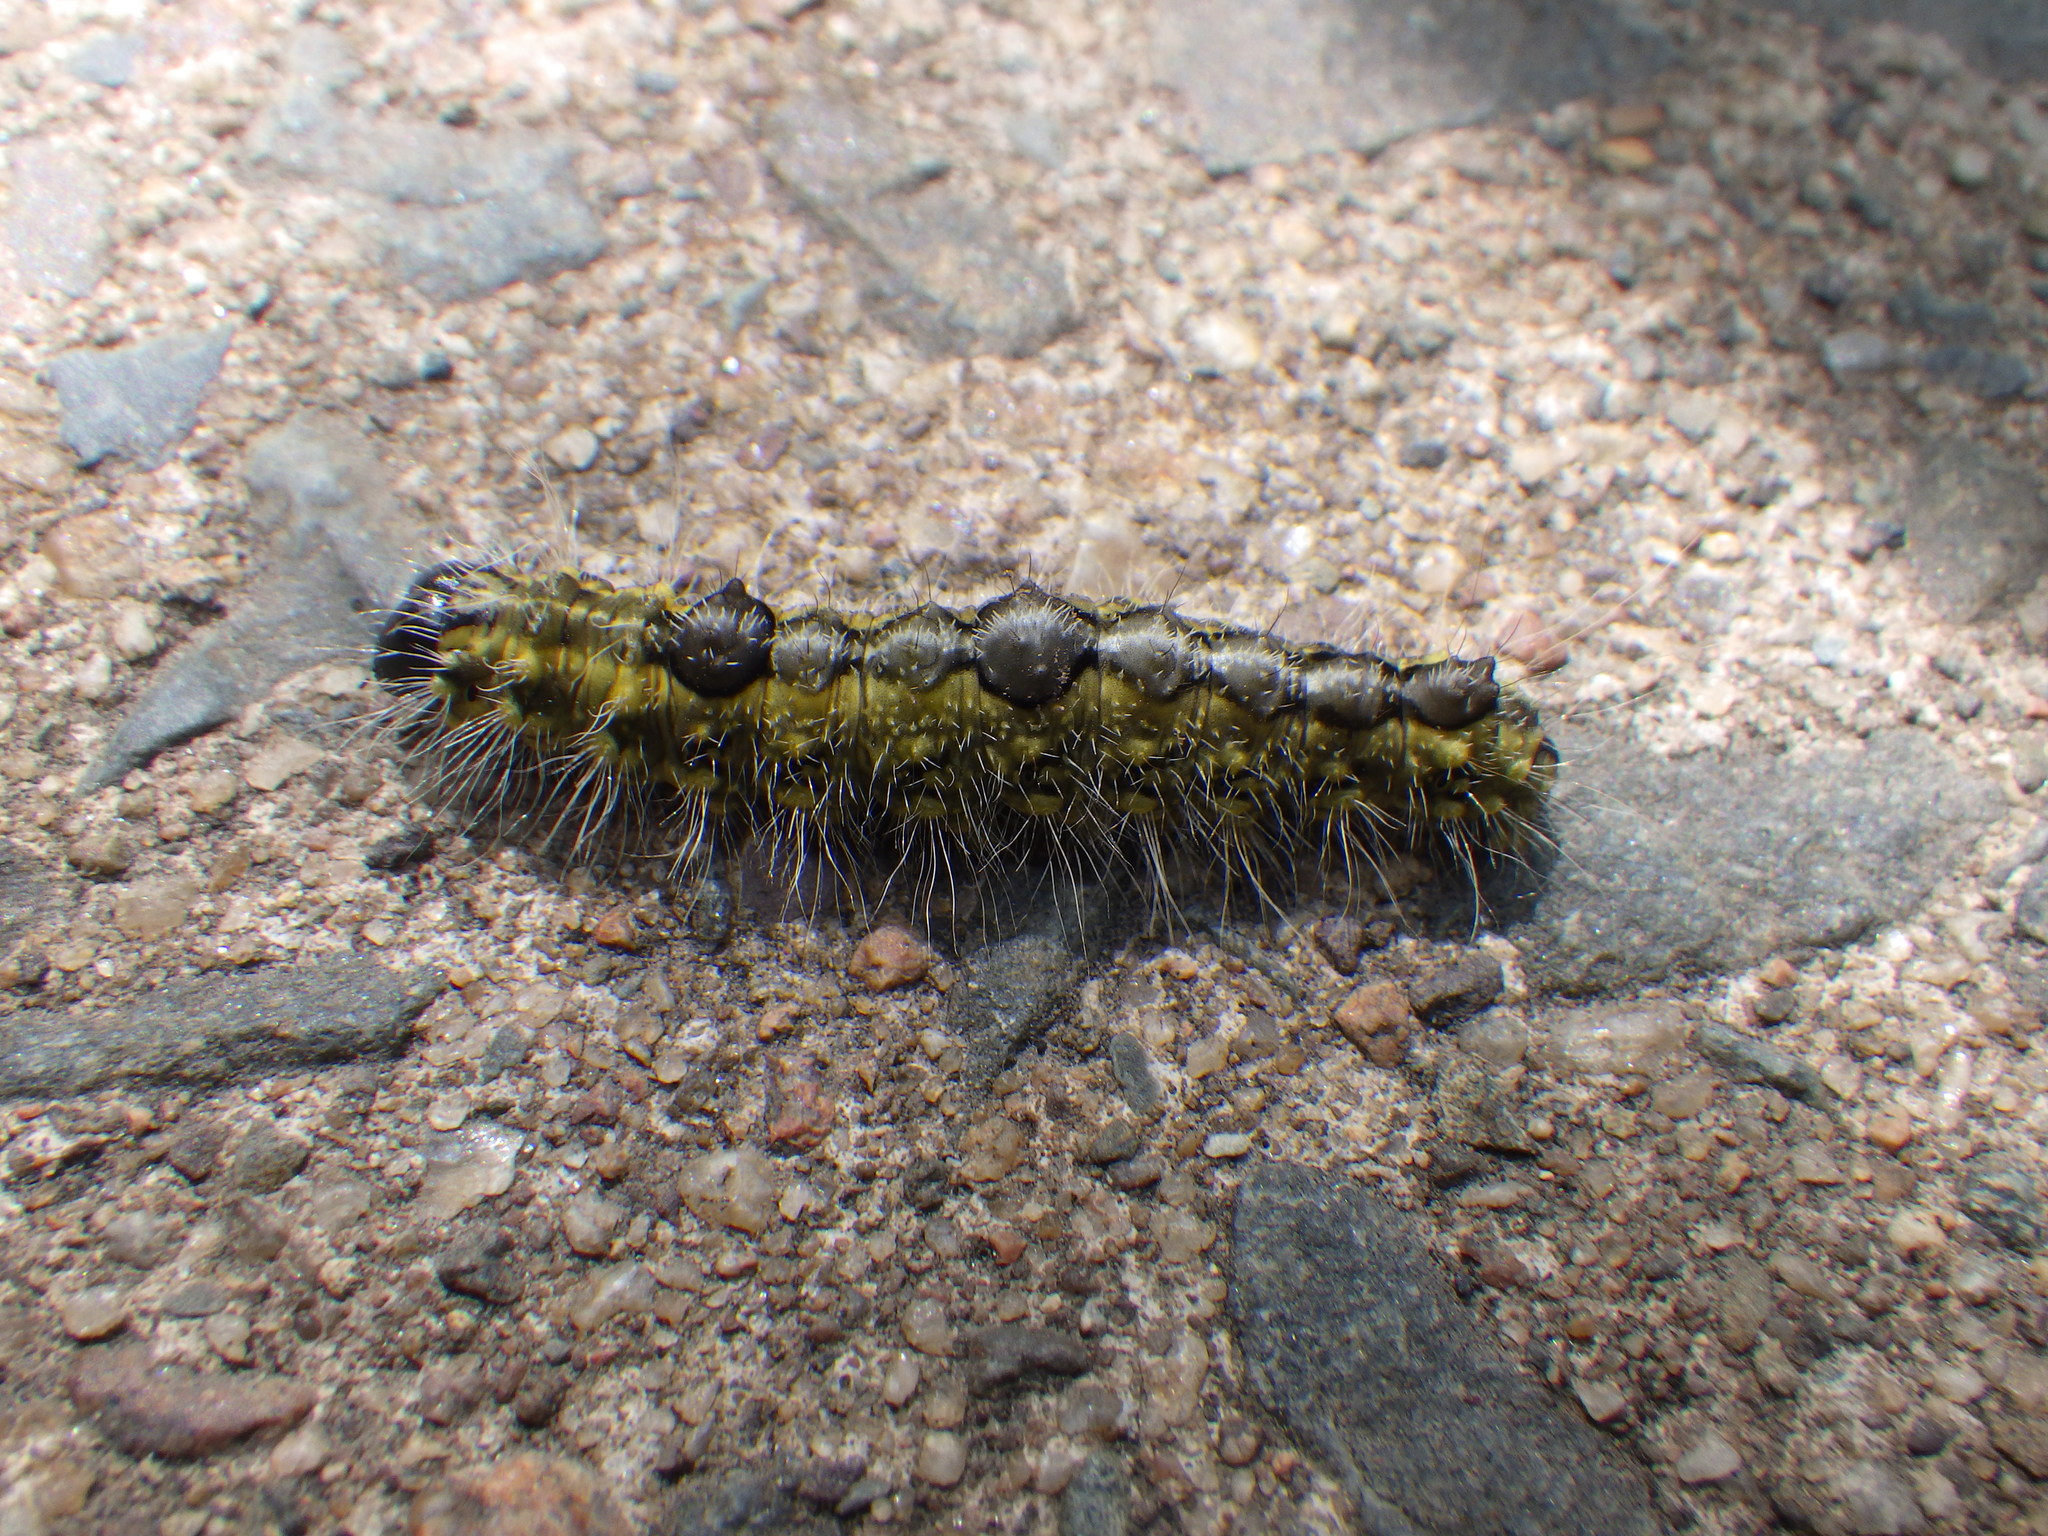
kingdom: Animalia
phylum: Arthropoda
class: Insecta
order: Lepidoptera
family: Noctuidae
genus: Acronicta
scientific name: Acronicta morula
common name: Ochre dagger
